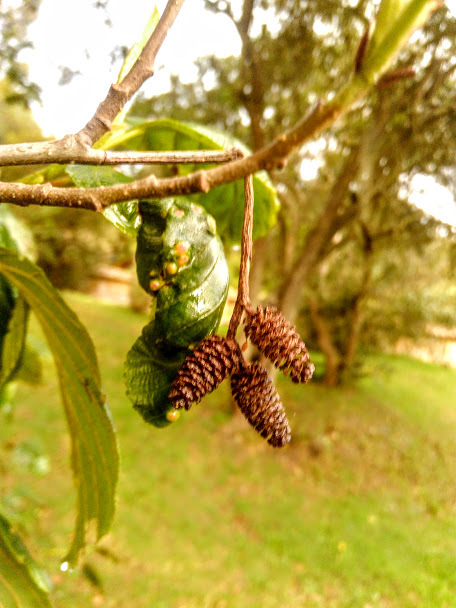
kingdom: Plantae
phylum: Tracheophyta
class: Magnoliopsida
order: Fagales
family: Betulaceae
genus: Alnus
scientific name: Alnus acuminata
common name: Alder
